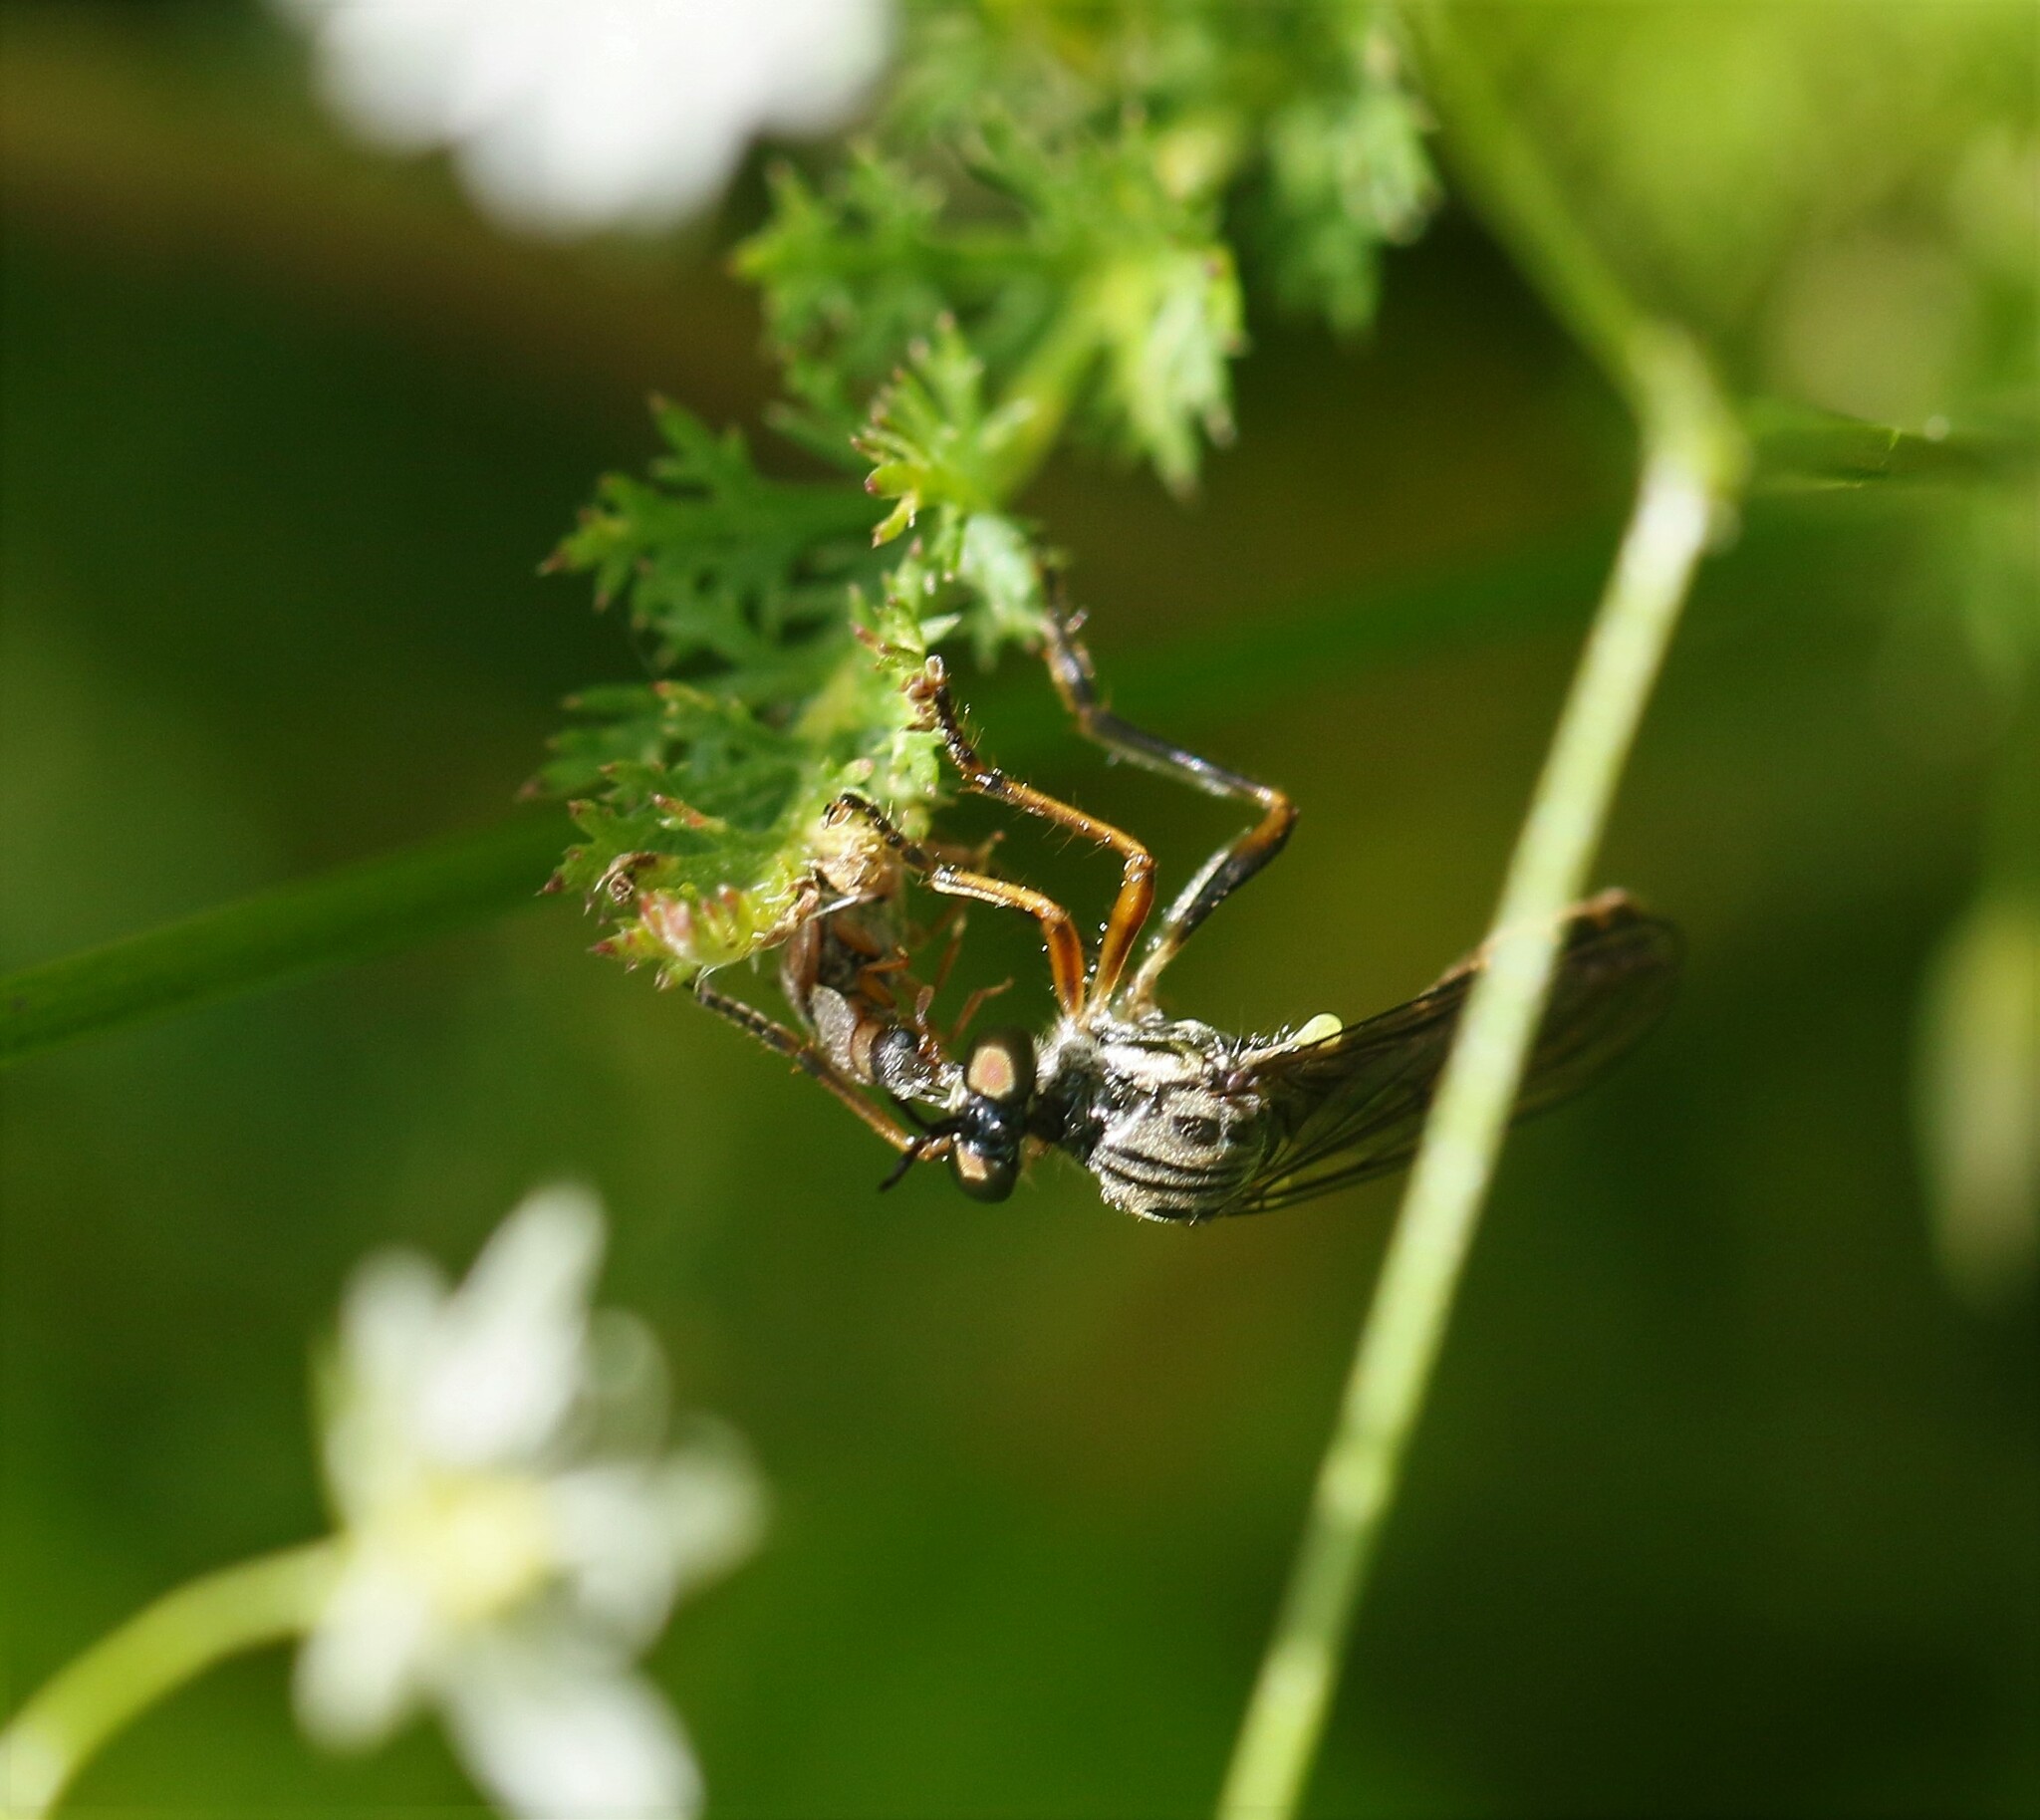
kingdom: Animalia
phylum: Arthropoda
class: Insecta
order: Diptera
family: Asilidae
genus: Dioctria
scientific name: Dioctria hyalipennis
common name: Stripe-legged robberfly
